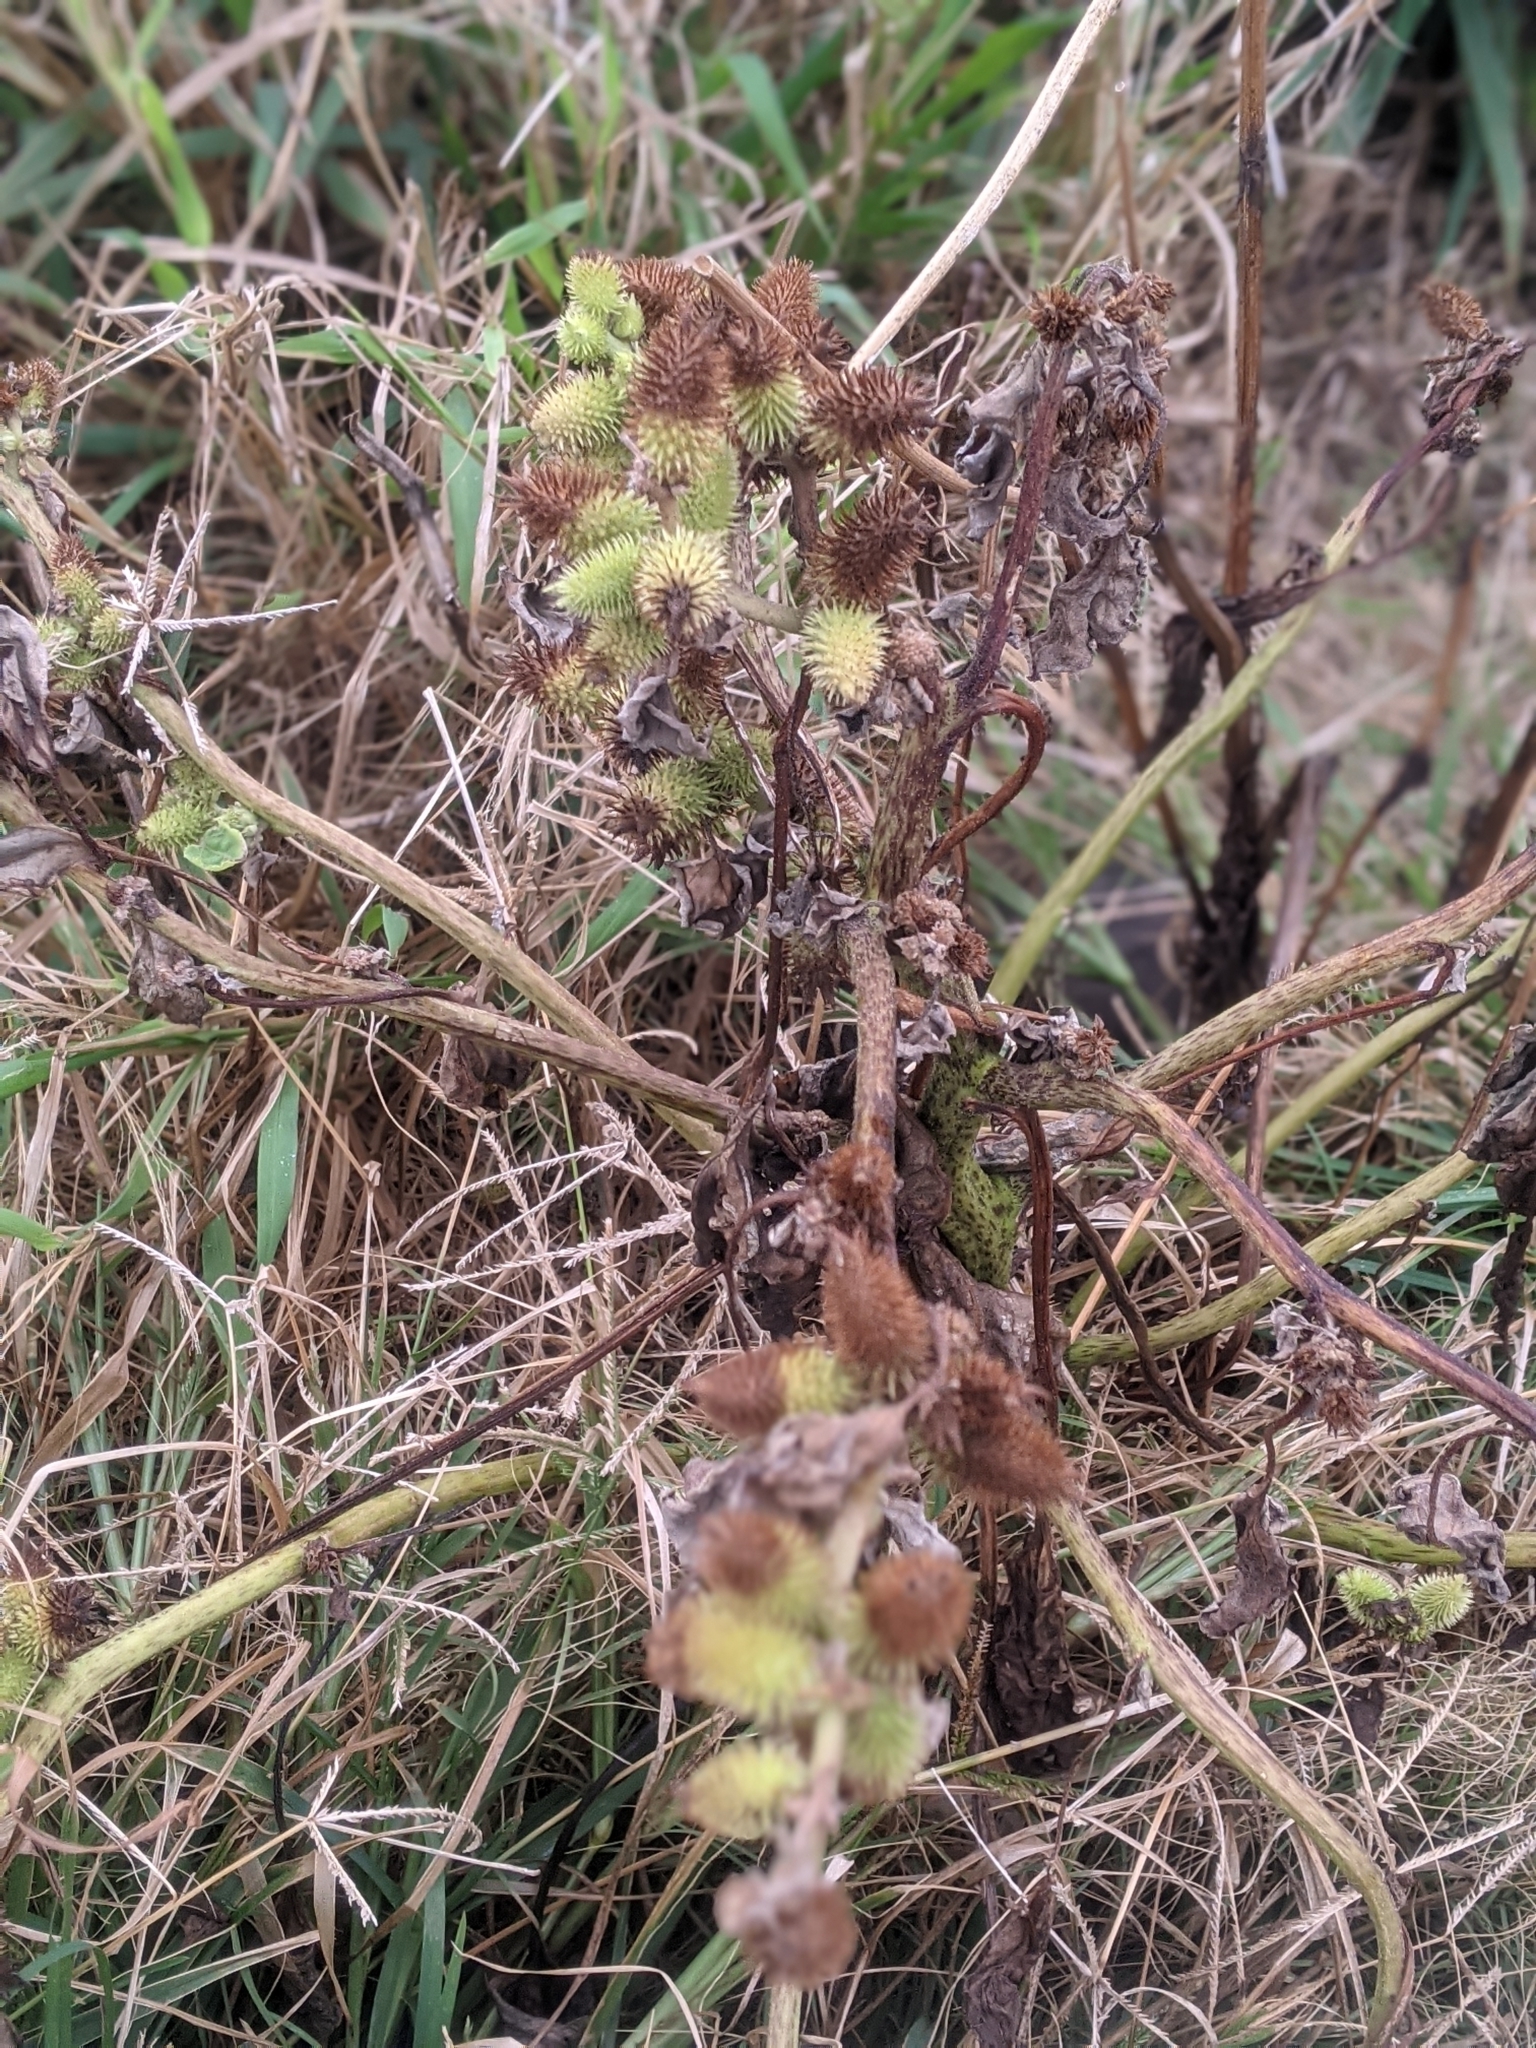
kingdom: Plantae
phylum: Tracheophyta
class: Magnoliopsida
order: Asterales
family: Asteraceae
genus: Xanthium
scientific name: Xanthium strumarium
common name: Rough cocklebur
